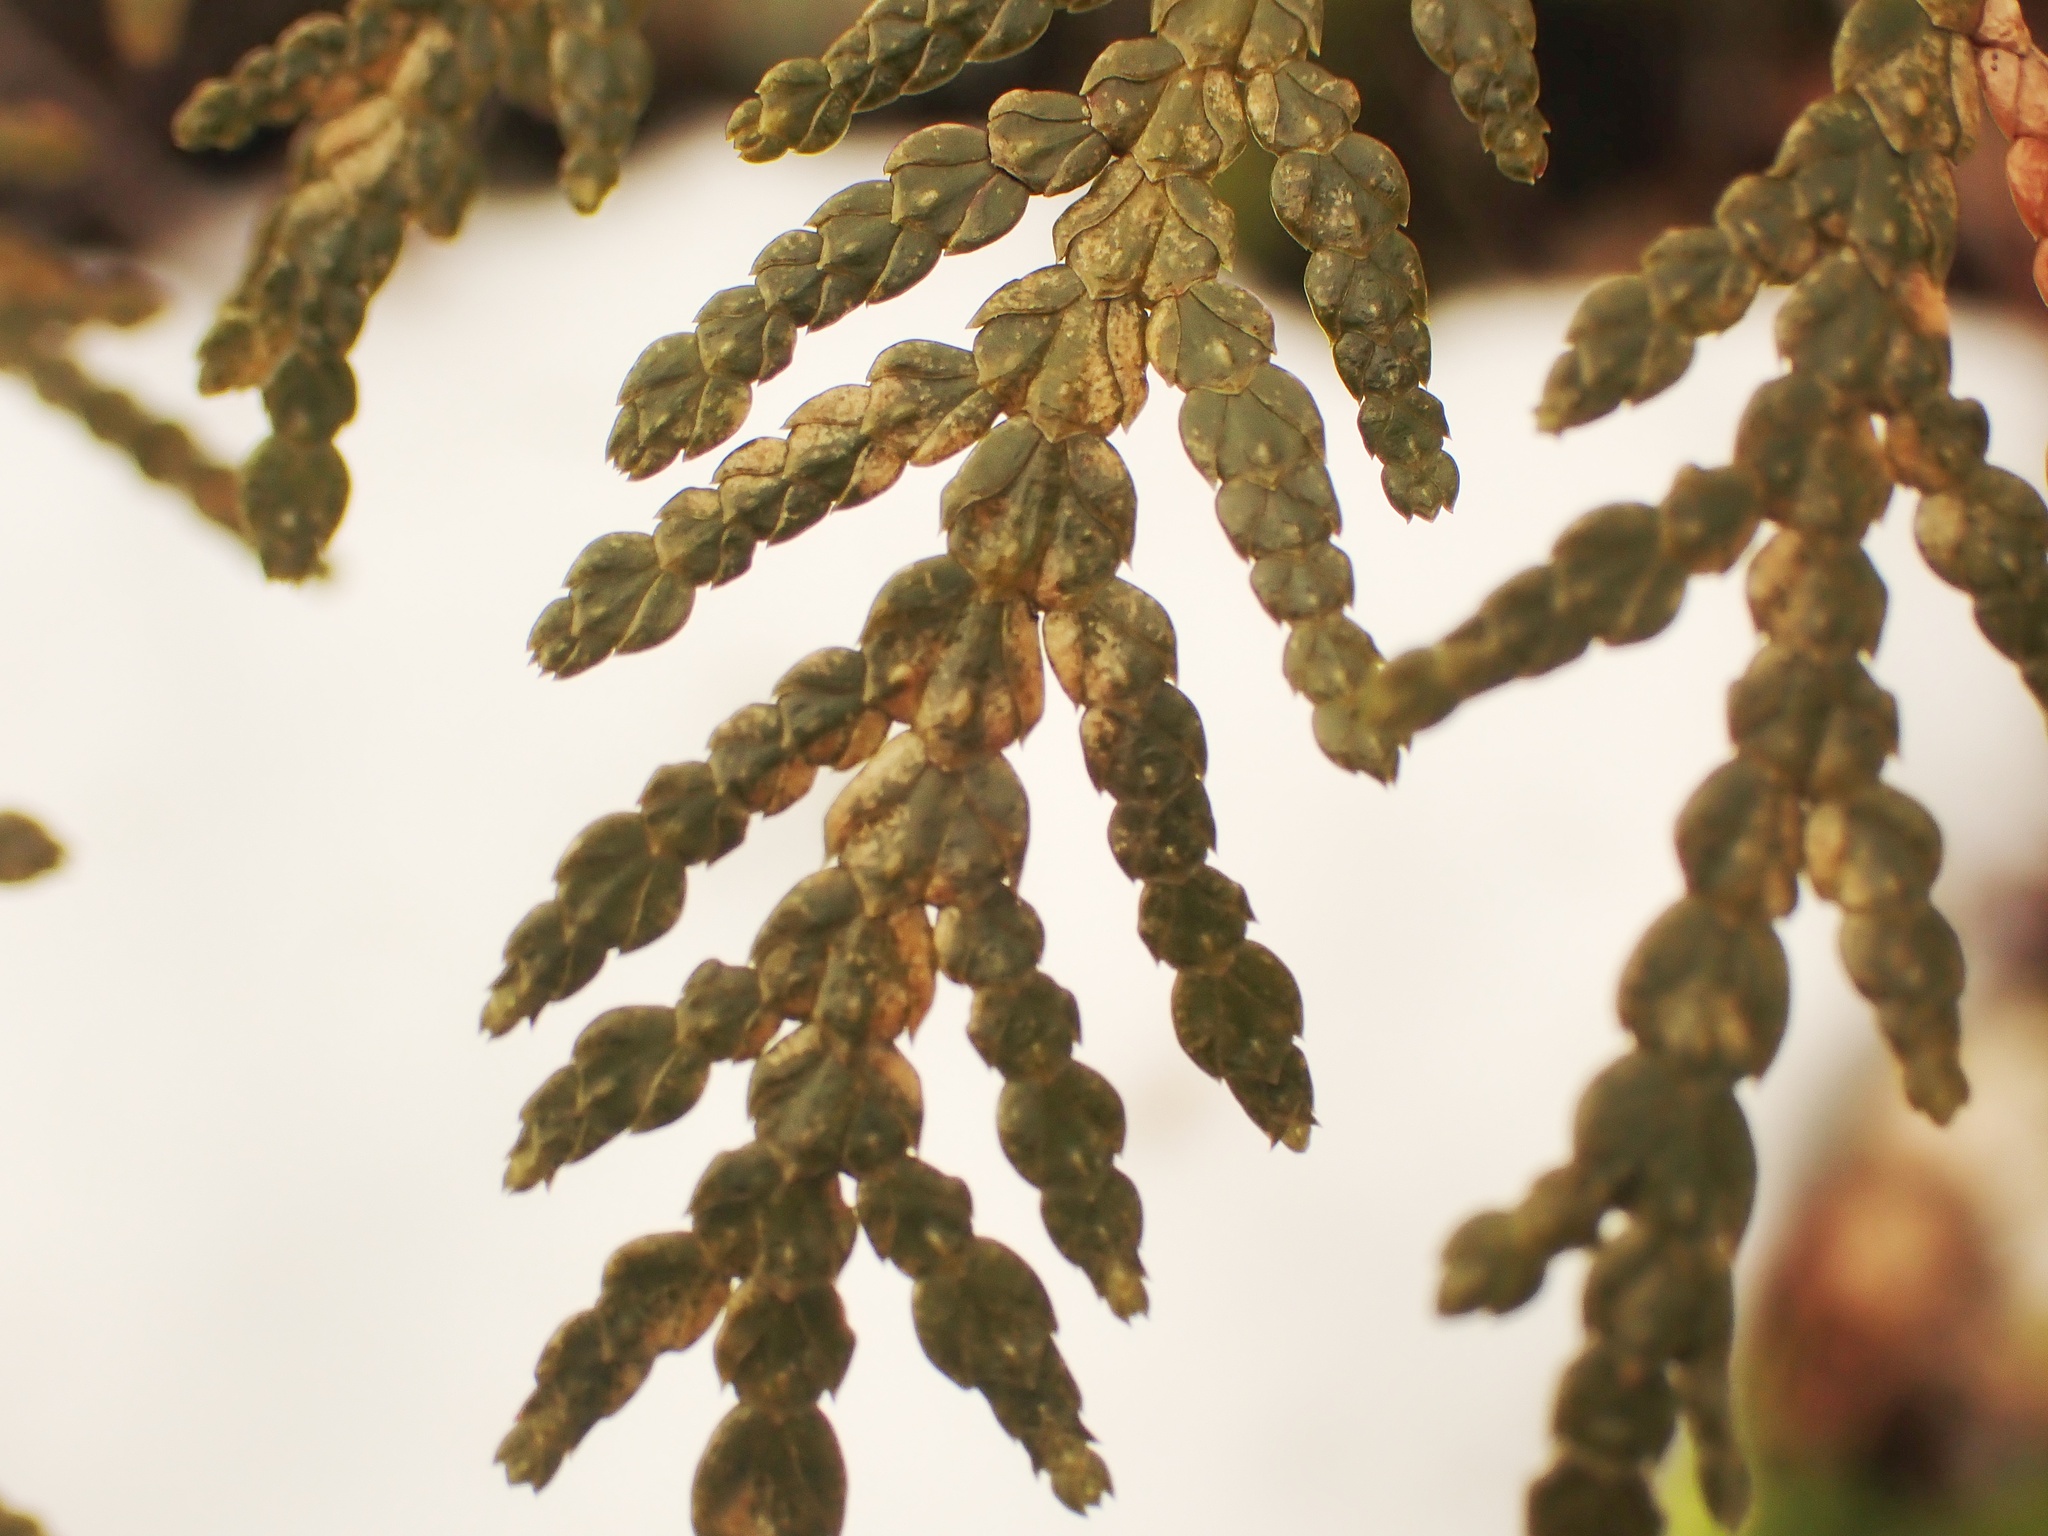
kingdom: Plantae
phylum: Tracheophyta
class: Pinopsida
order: Pinales
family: Cupressaceae
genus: Thuja
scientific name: Thuja occidentalis
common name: Northern white-cedar
